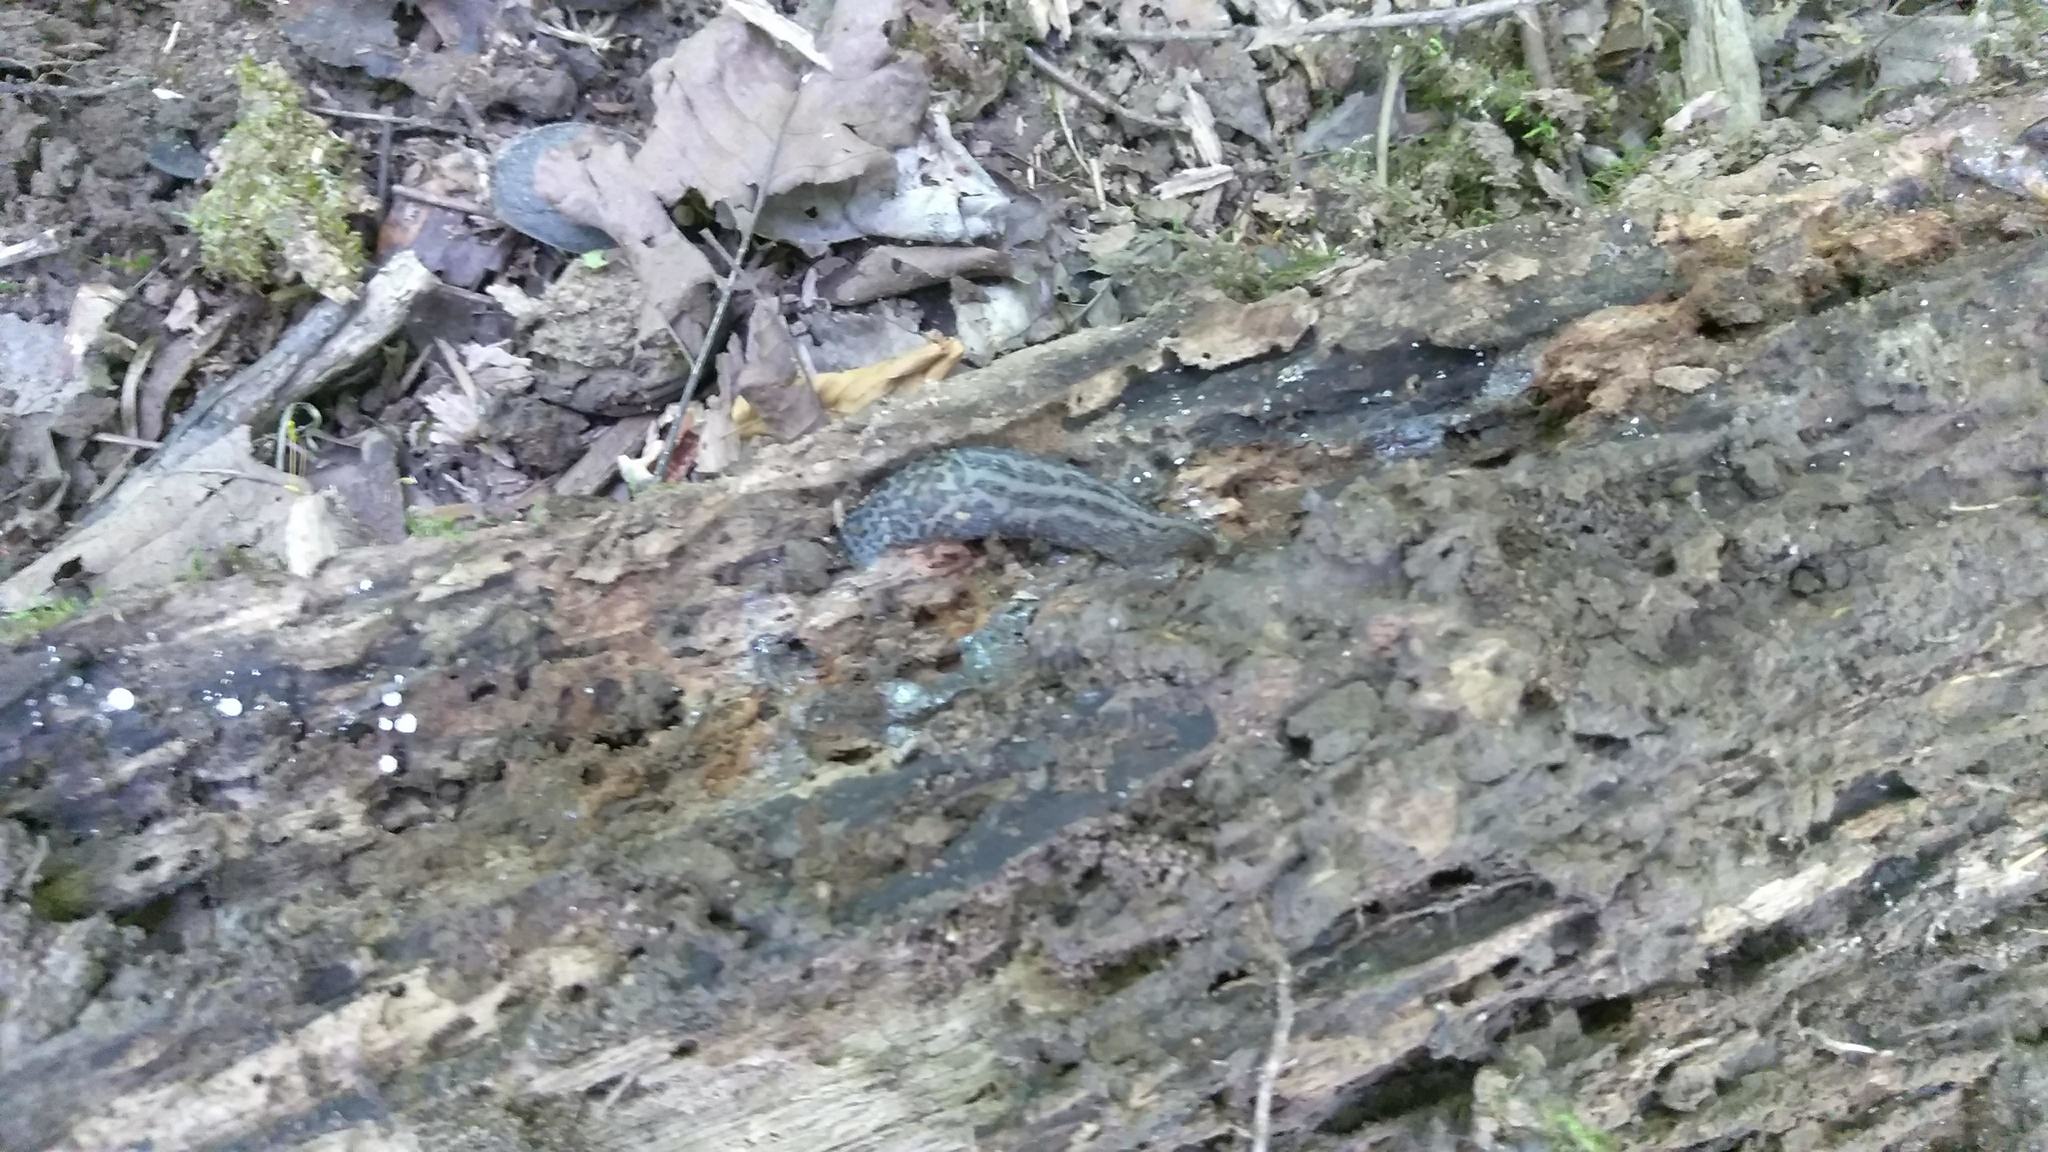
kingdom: Animalia
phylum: Mollusca
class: Gastropoda
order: Stylommatophora
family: Limacidae
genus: Limax
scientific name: Limax maximus
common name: Great grey slug
